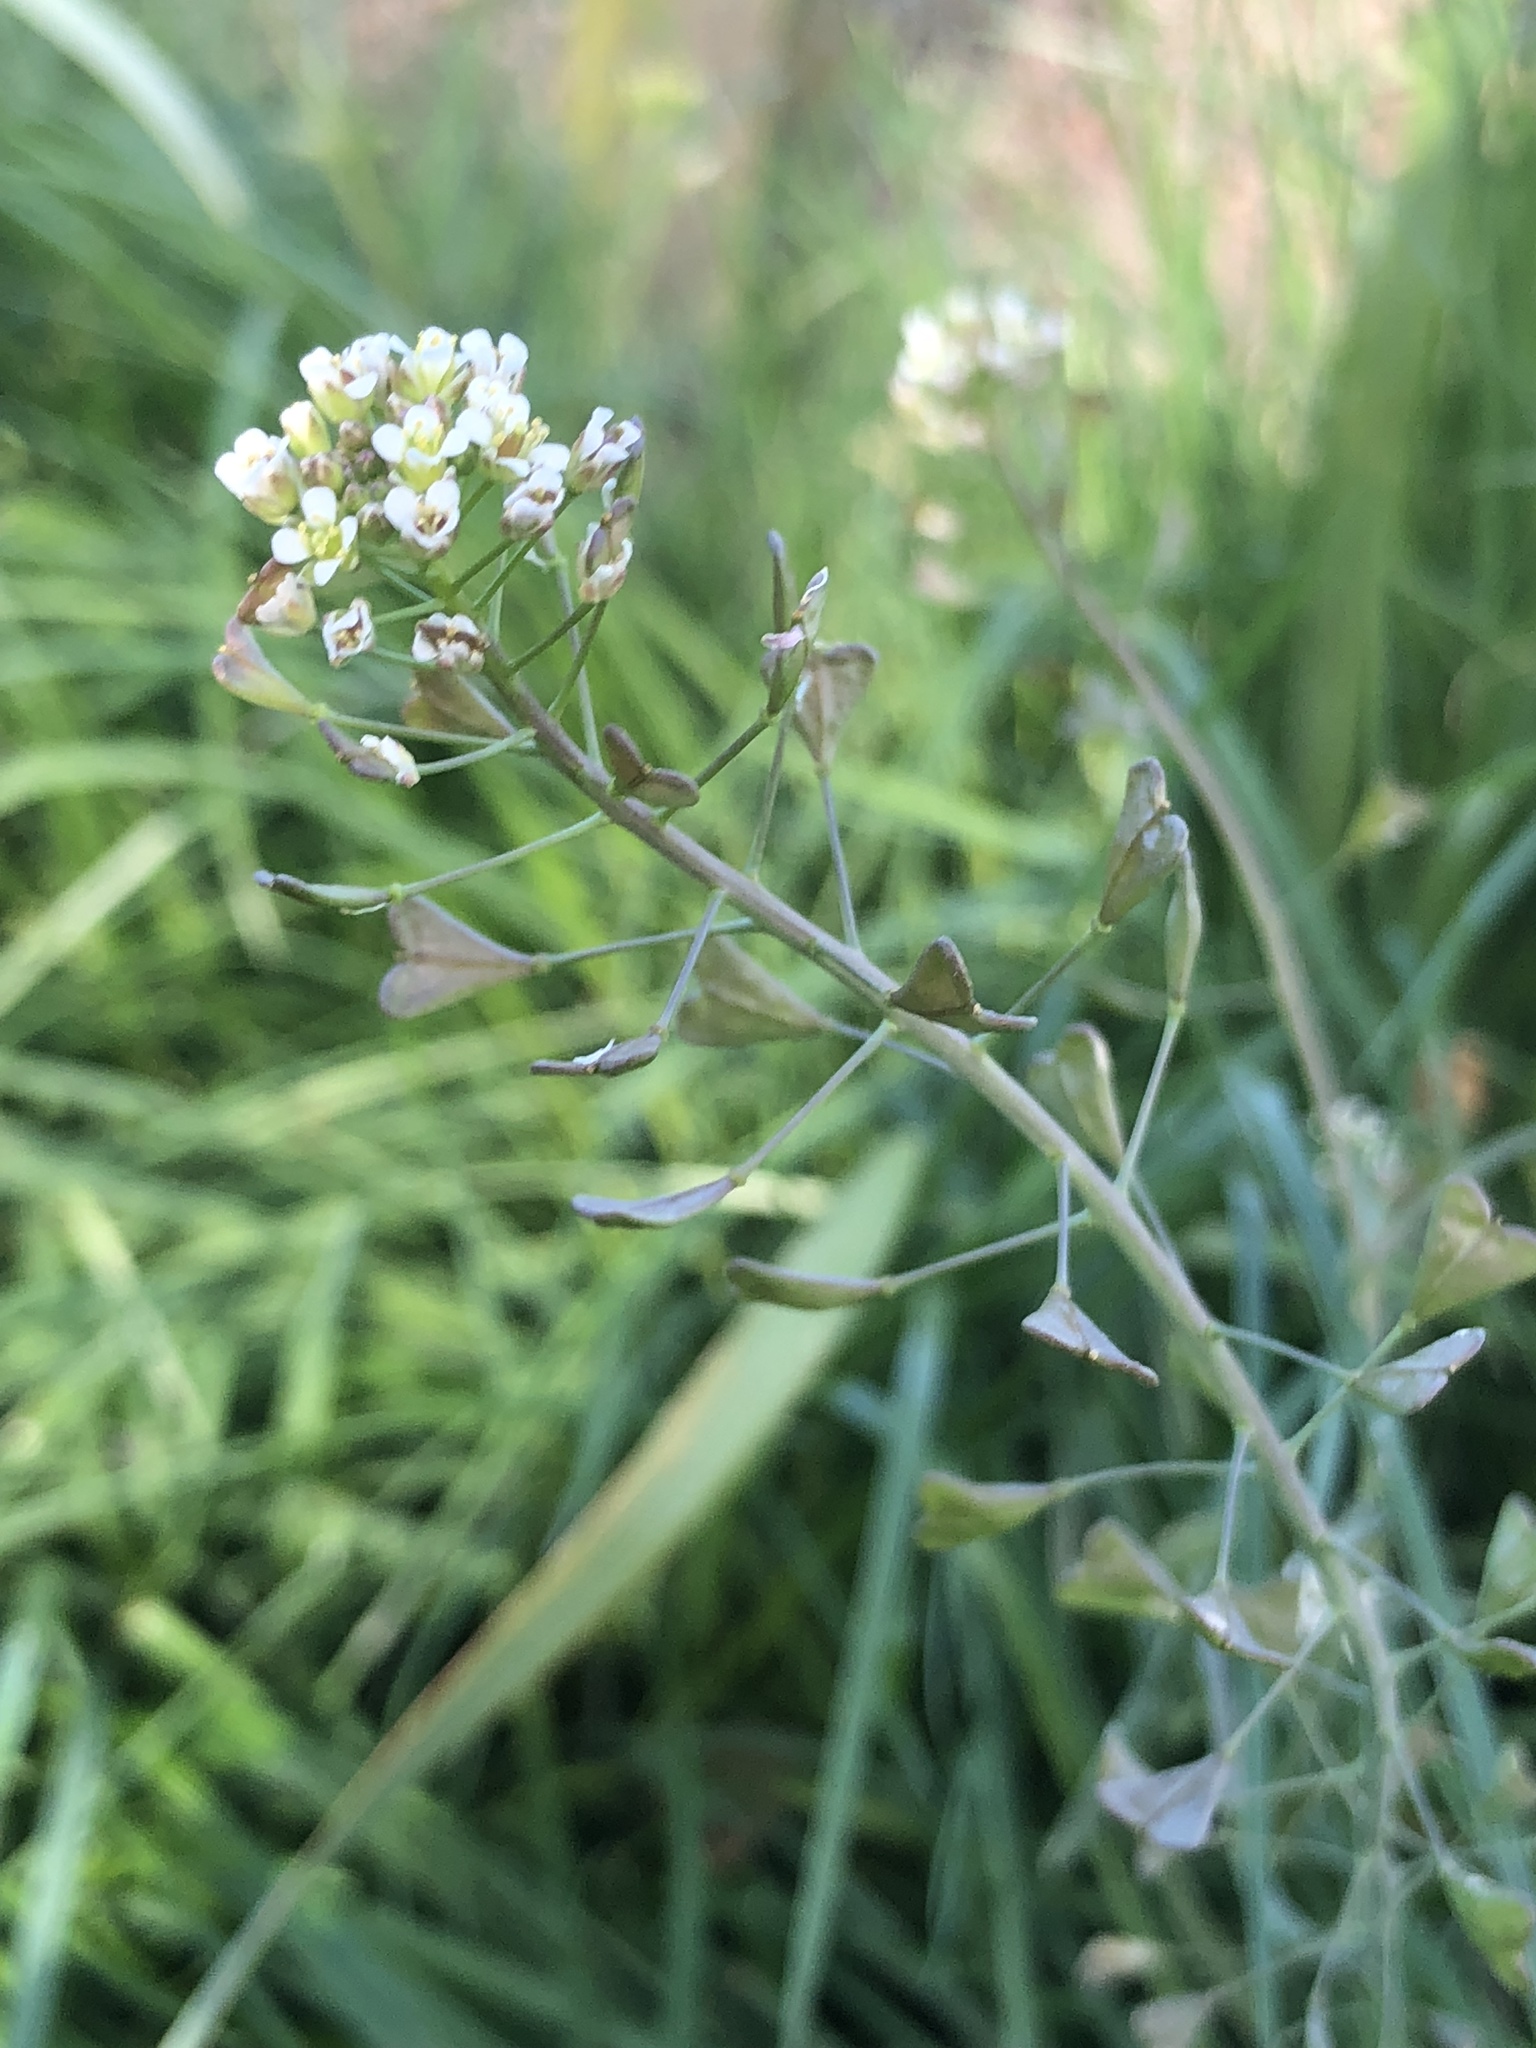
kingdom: Plantae
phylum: Tracheophyta
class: Magnoliopsida
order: Brassicales
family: Brassicaceae
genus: Capsella
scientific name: Capsella bursa-pastoris
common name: Shepherd's purse
